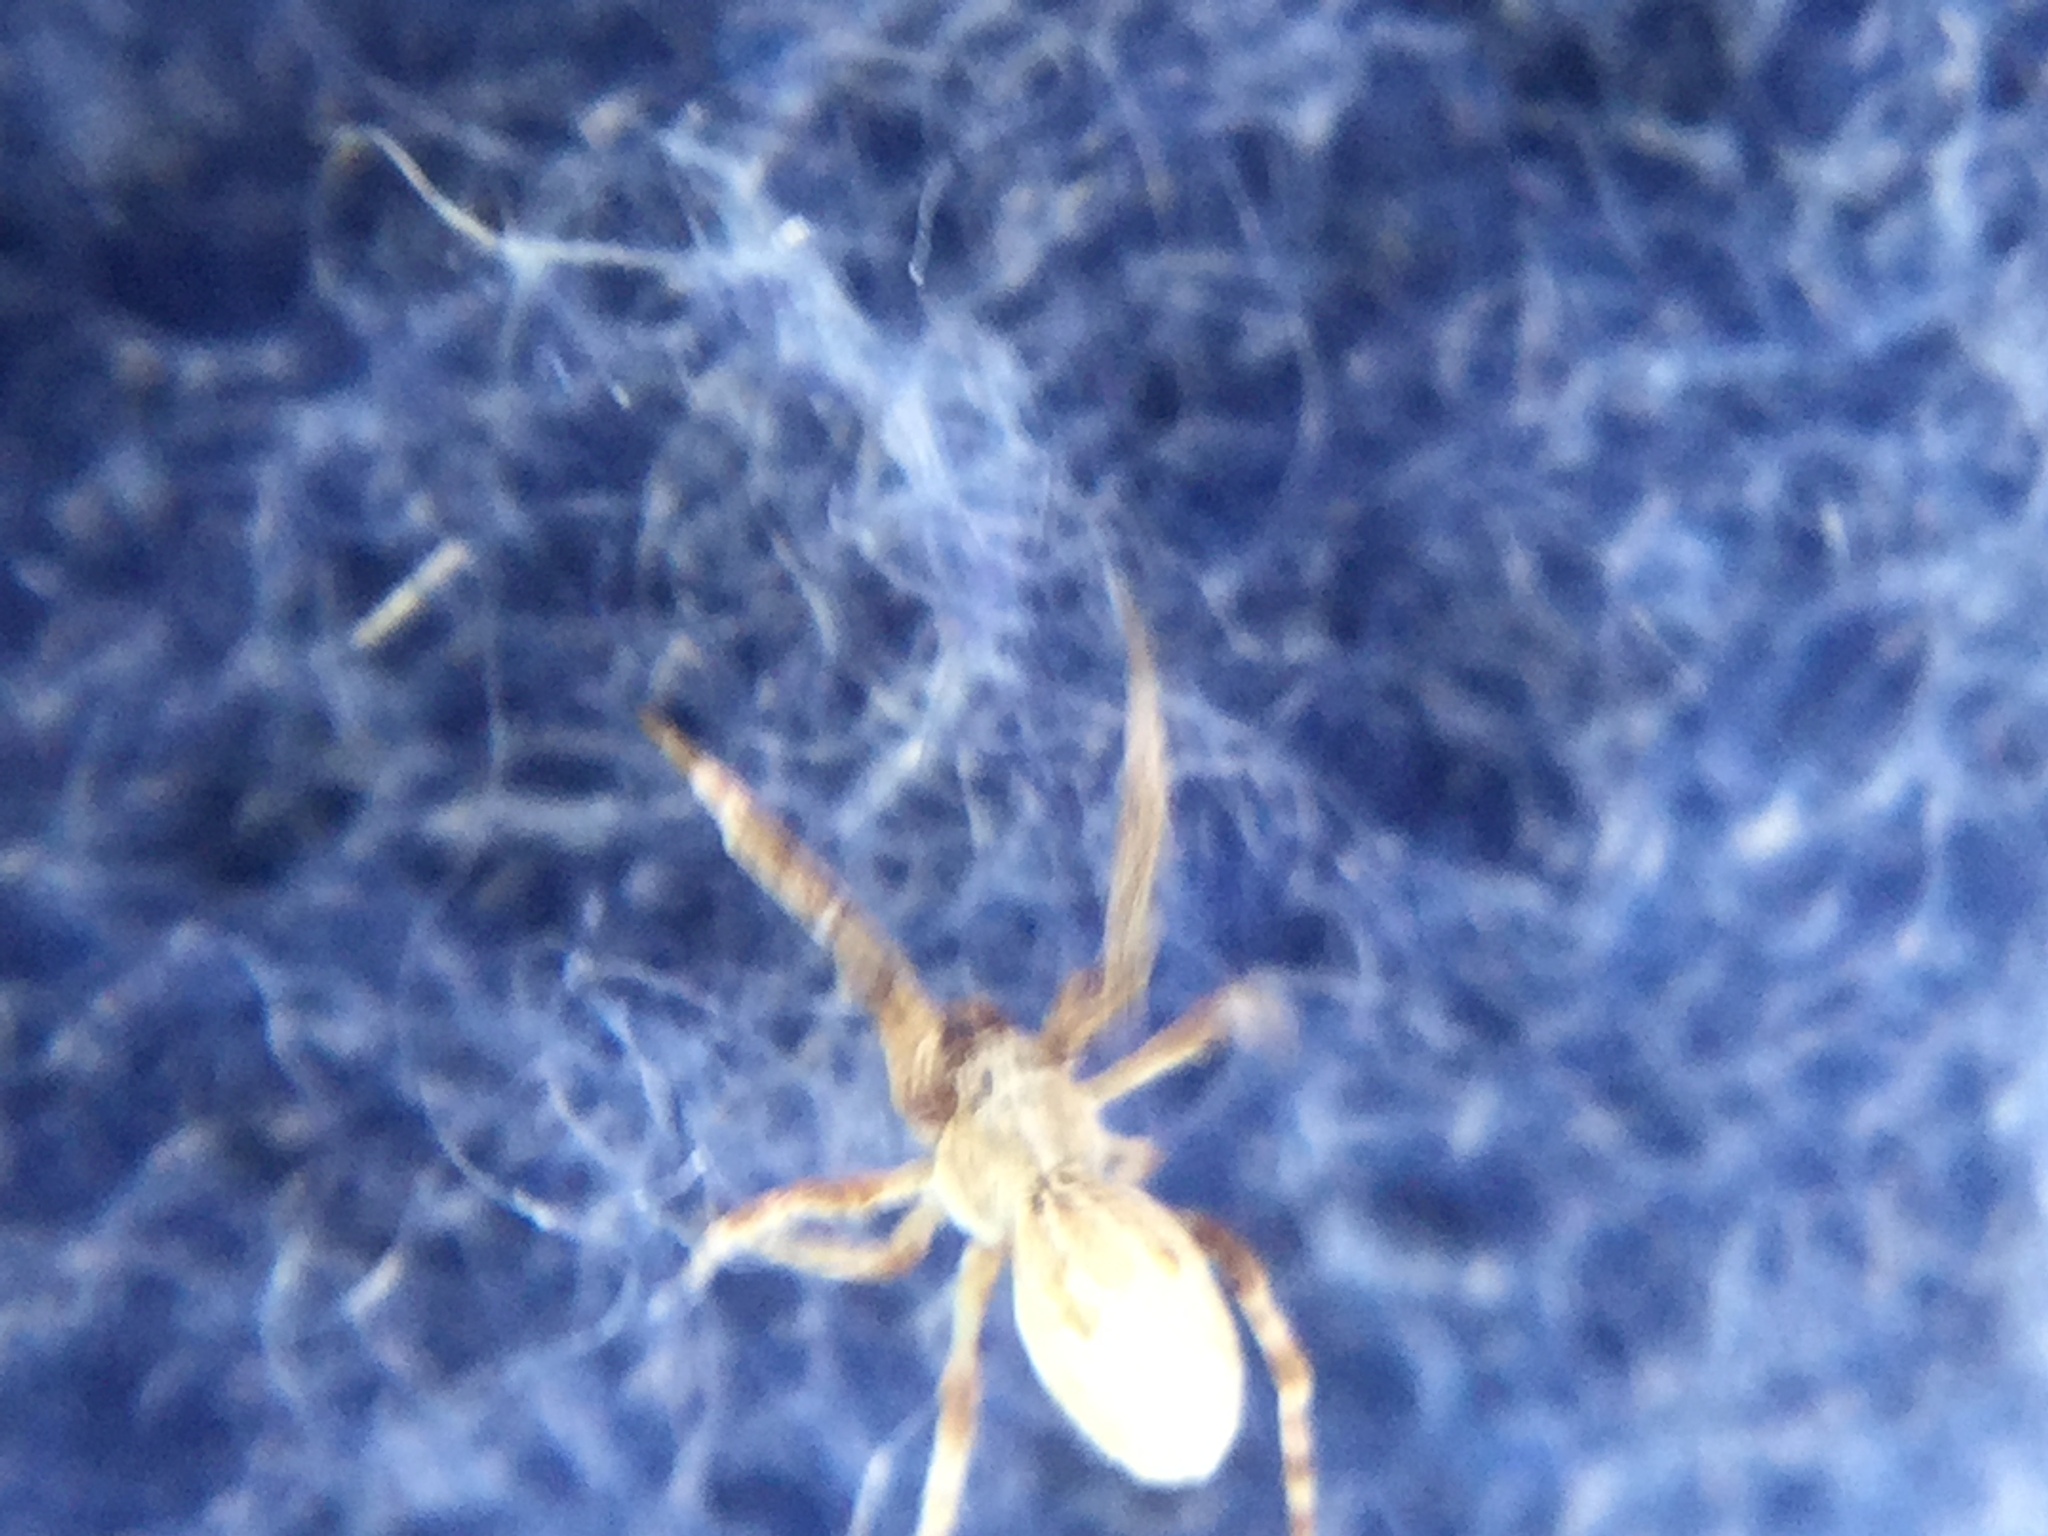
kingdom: Animalia
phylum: Arthropoda
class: Arachnida
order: Araneae
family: Uloboridae
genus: Uloborus
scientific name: Uloborus glomosus
